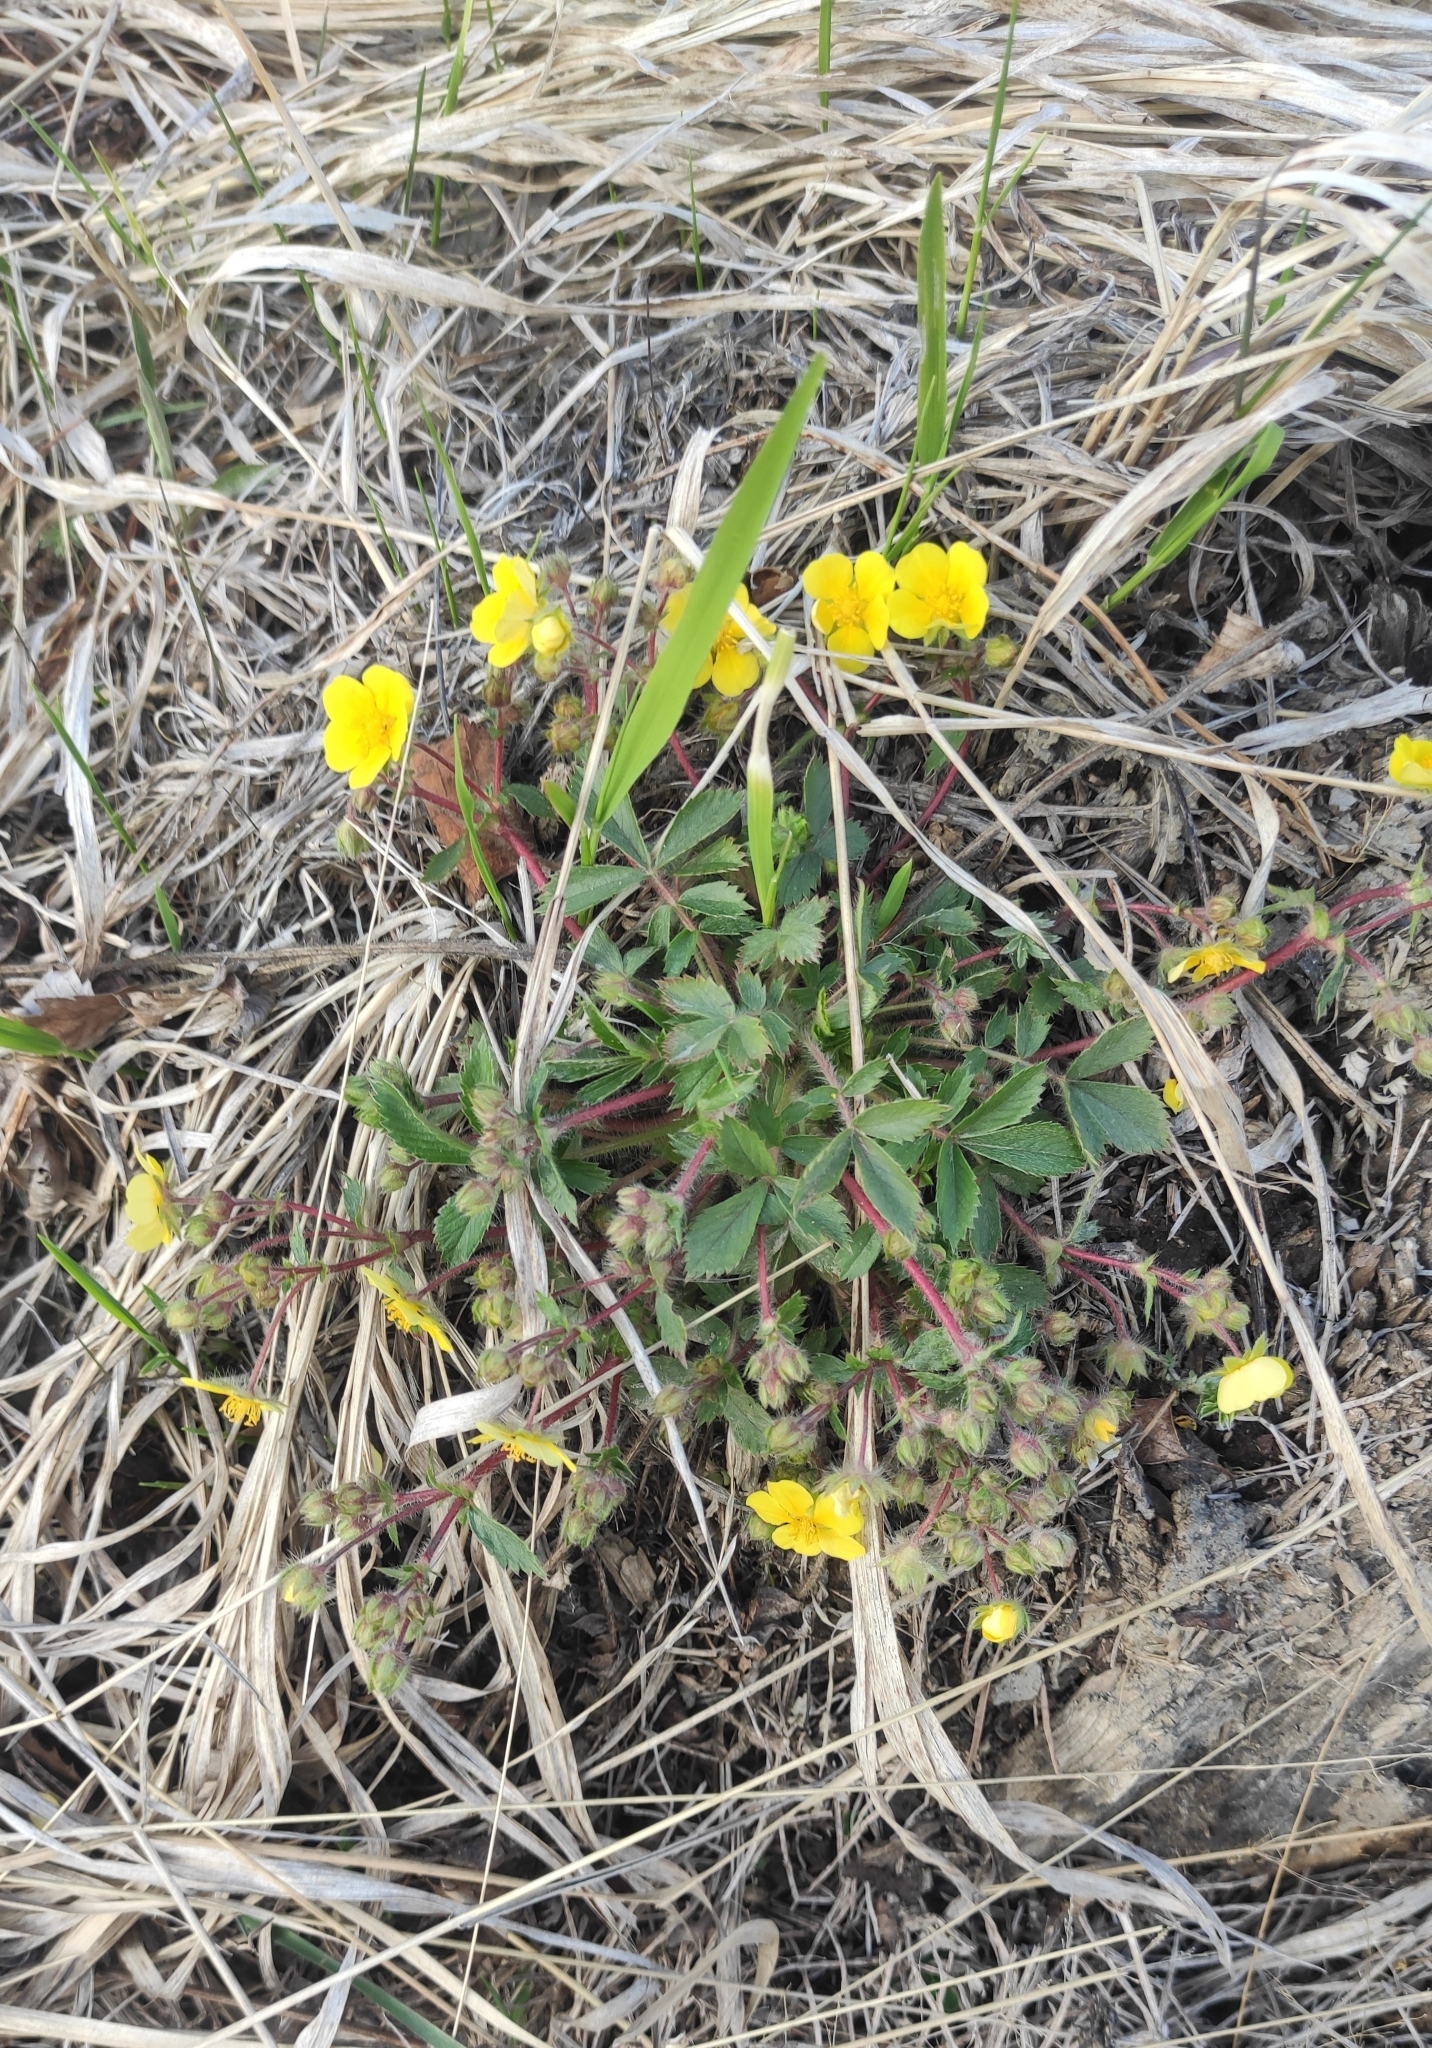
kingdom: Plantae
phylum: Tracheophyta
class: Magnoliopsida
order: Rosales
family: Rosaceae
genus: Potentilla
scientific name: Potentilla fragarioides
